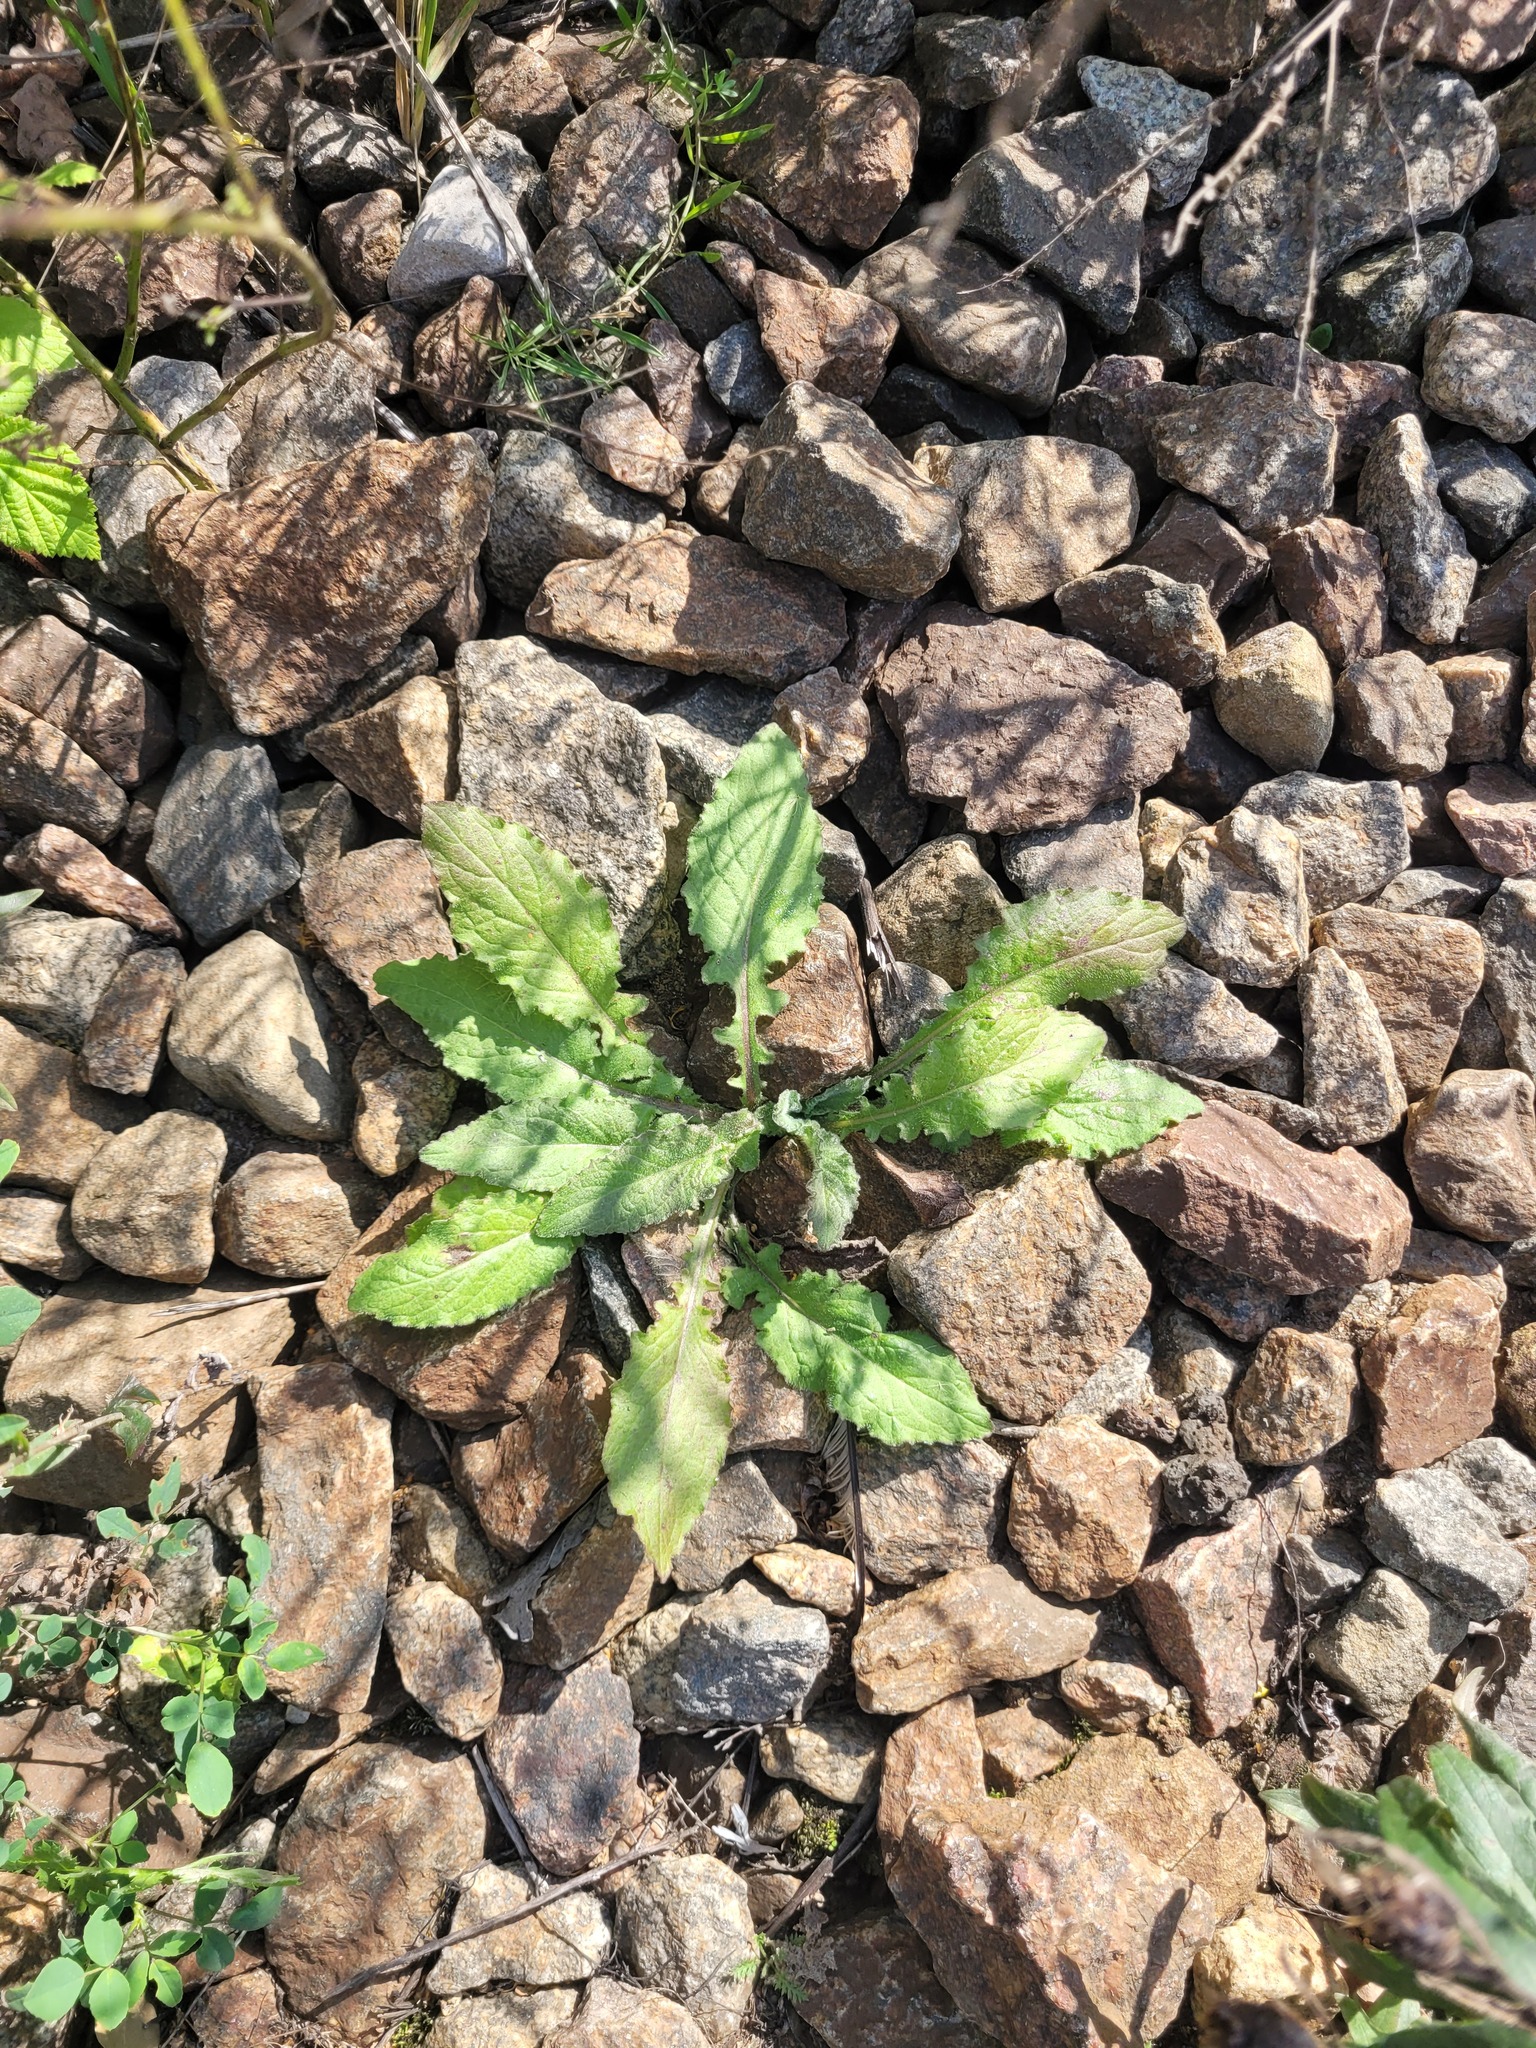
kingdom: Plantae
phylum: Tracheophyta
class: Magnoliopsida
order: Asterales
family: Asteraceae
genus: Lapsana
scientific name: Lapsana communis
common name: Nipplewort
